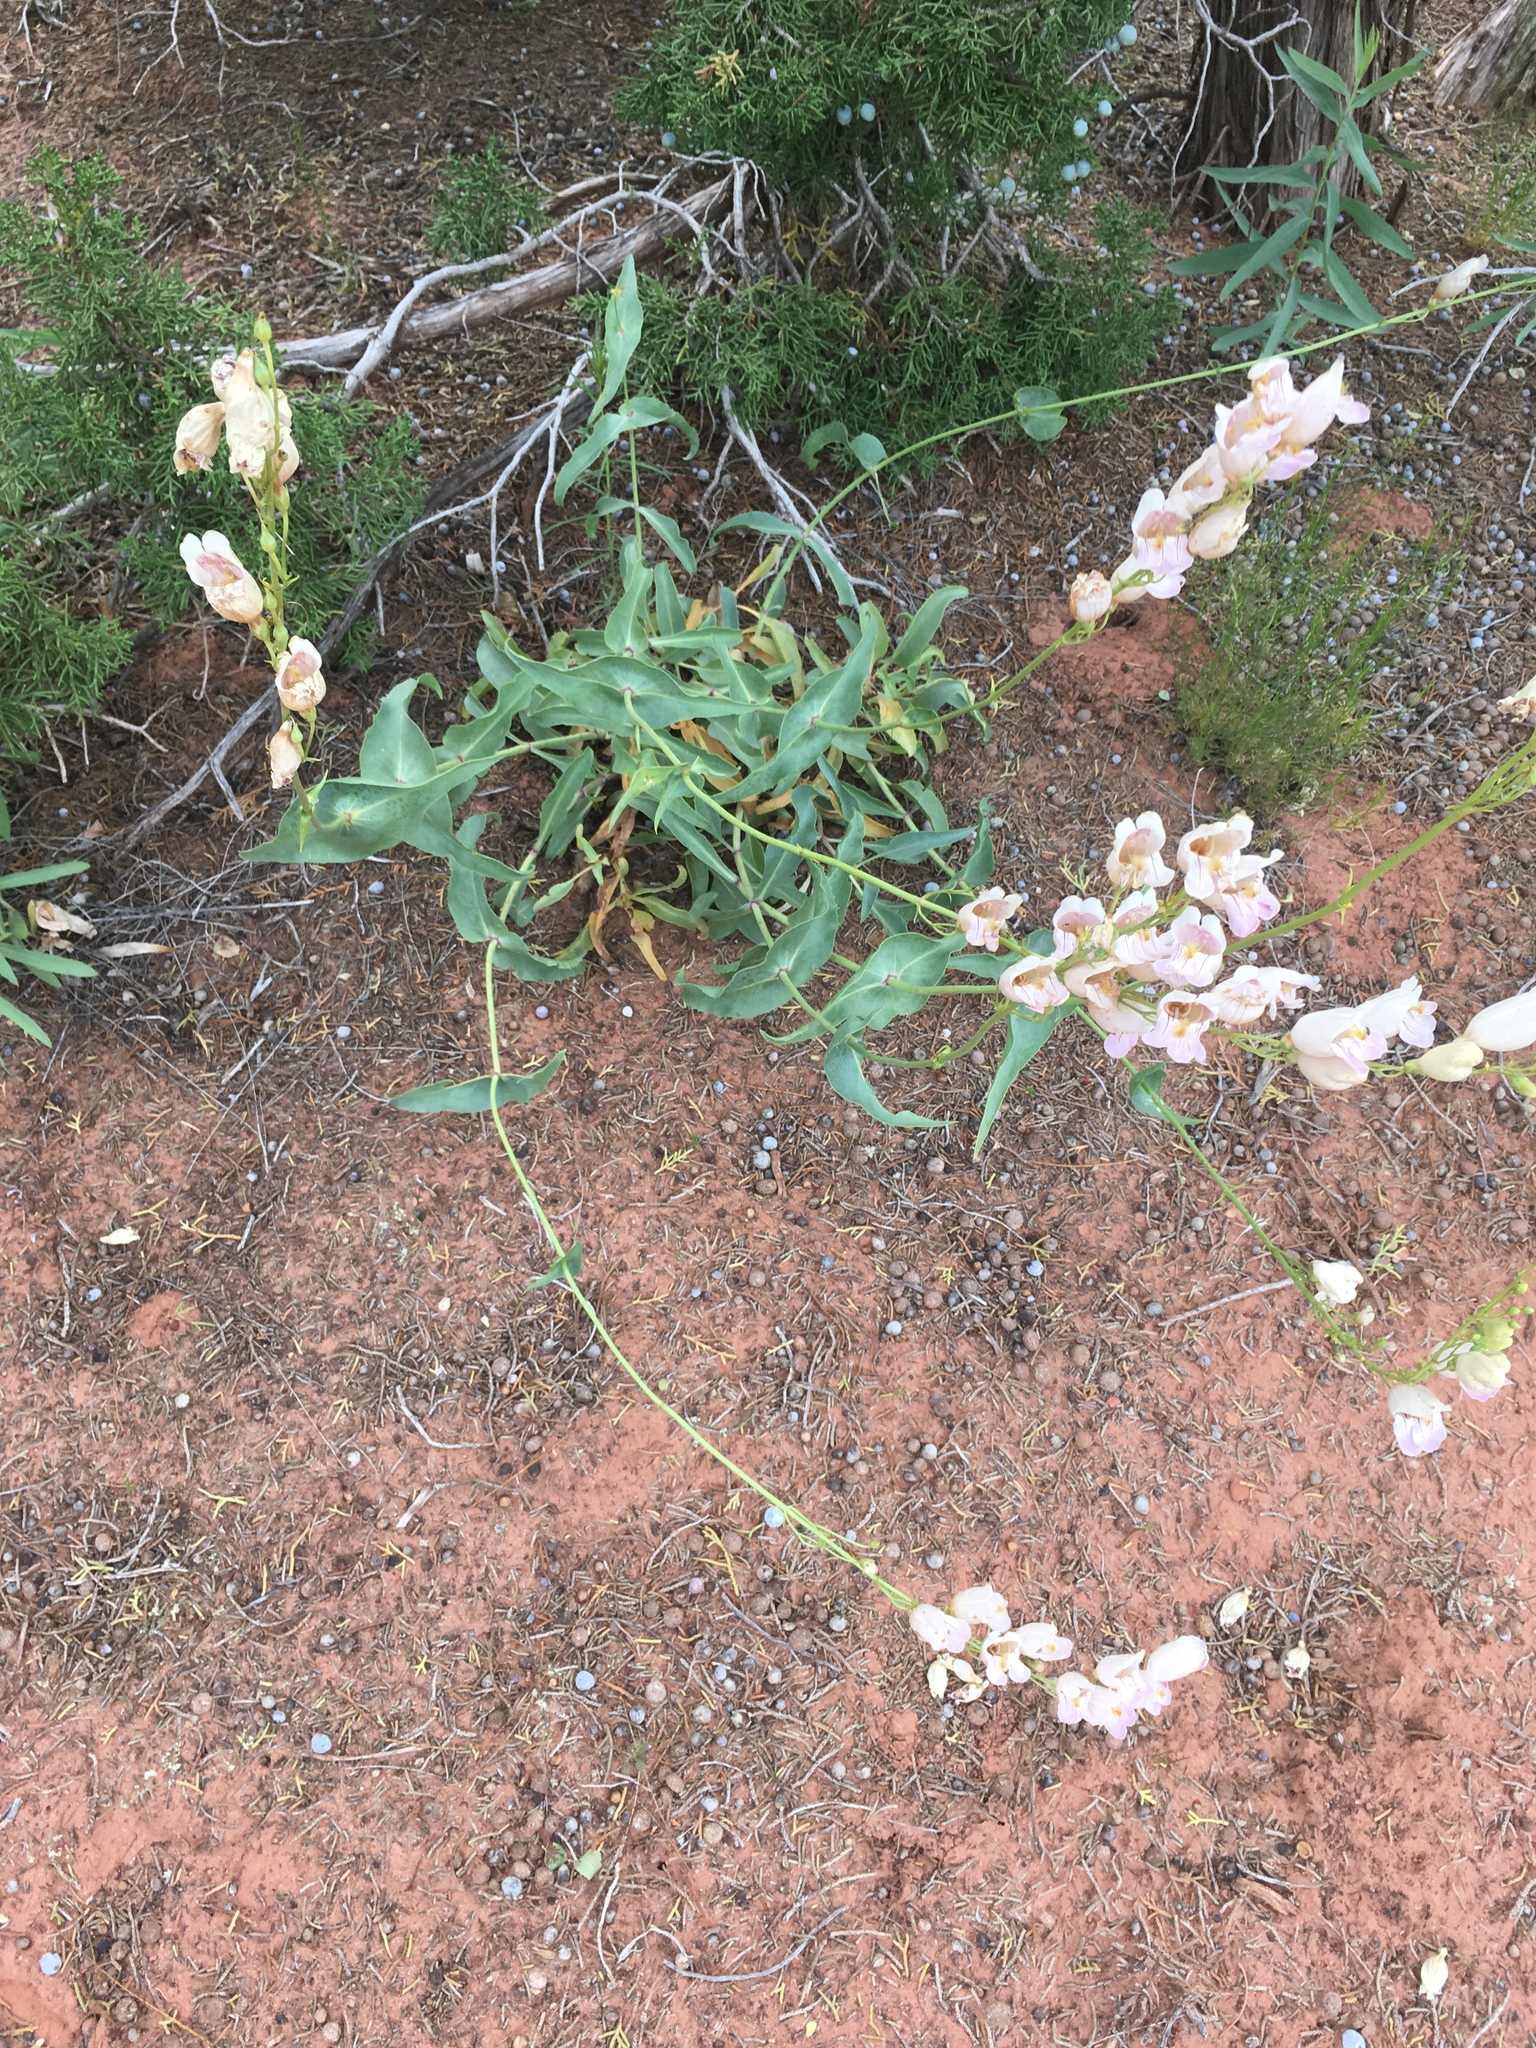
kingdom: Plantae
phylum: Tracheophyta
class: Magnoliopsida
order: Lamiales
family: Plantaginaceae
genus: Penstemon
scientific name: Penstemon palmeri
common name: Palmer penstemon
